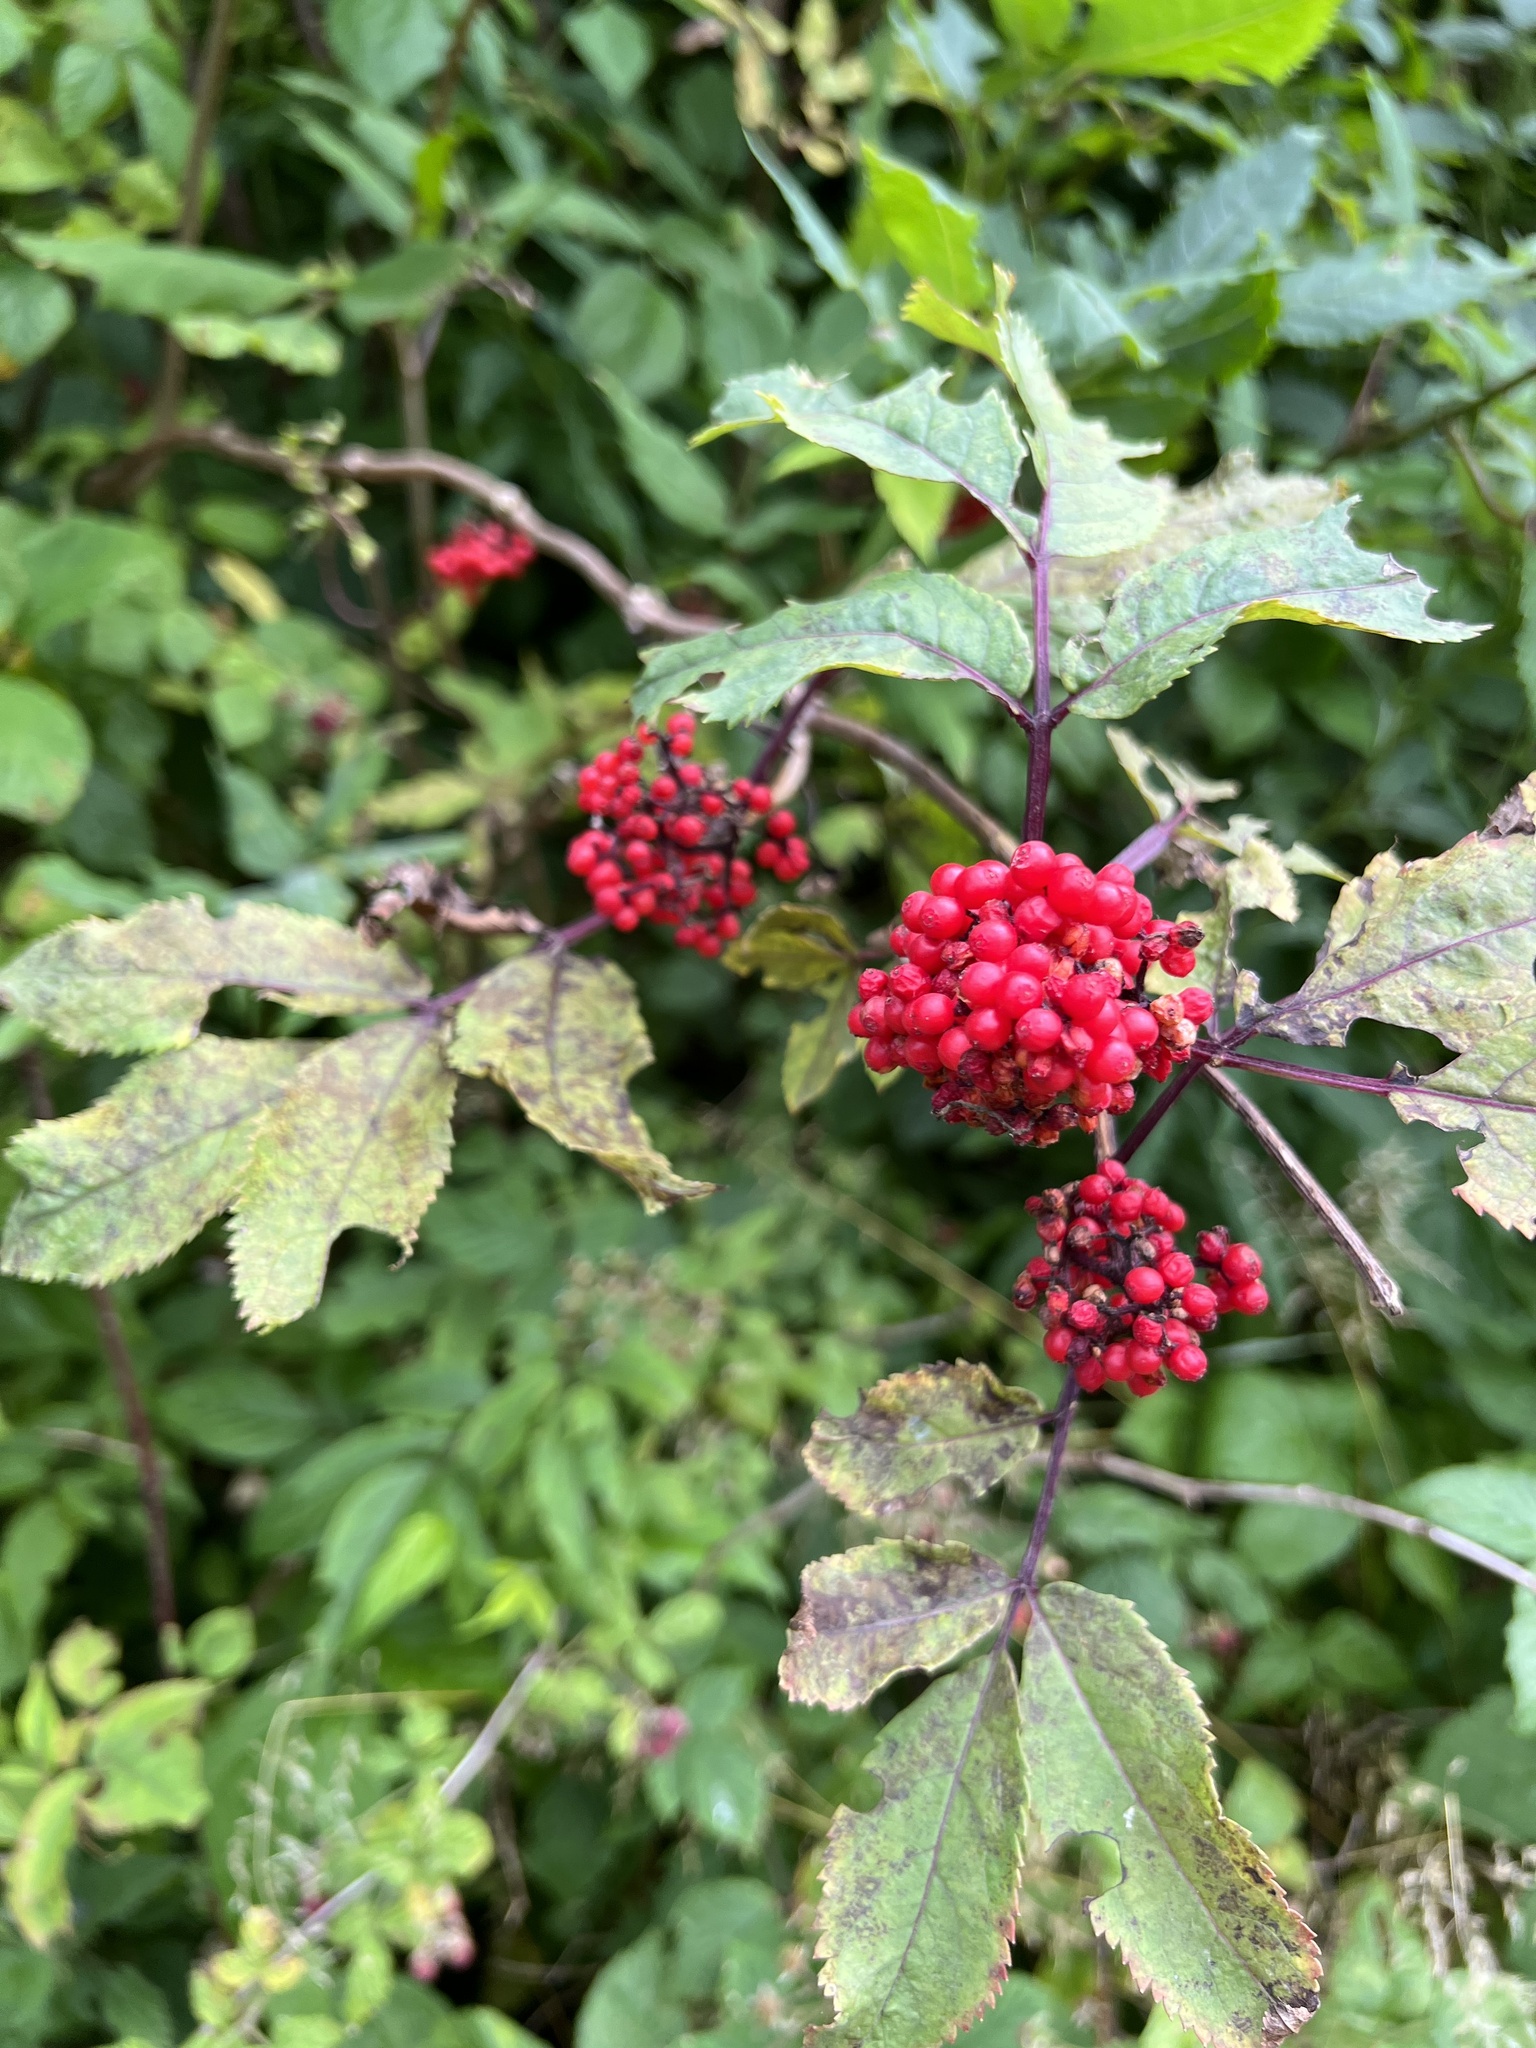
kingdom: Plantae
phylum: Tracheophyta
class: Magnoliopsida
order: Dipsacales
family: Viburnaceae
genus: Sambucus
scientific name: Sambucus racemosa
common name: Red-berried elder
